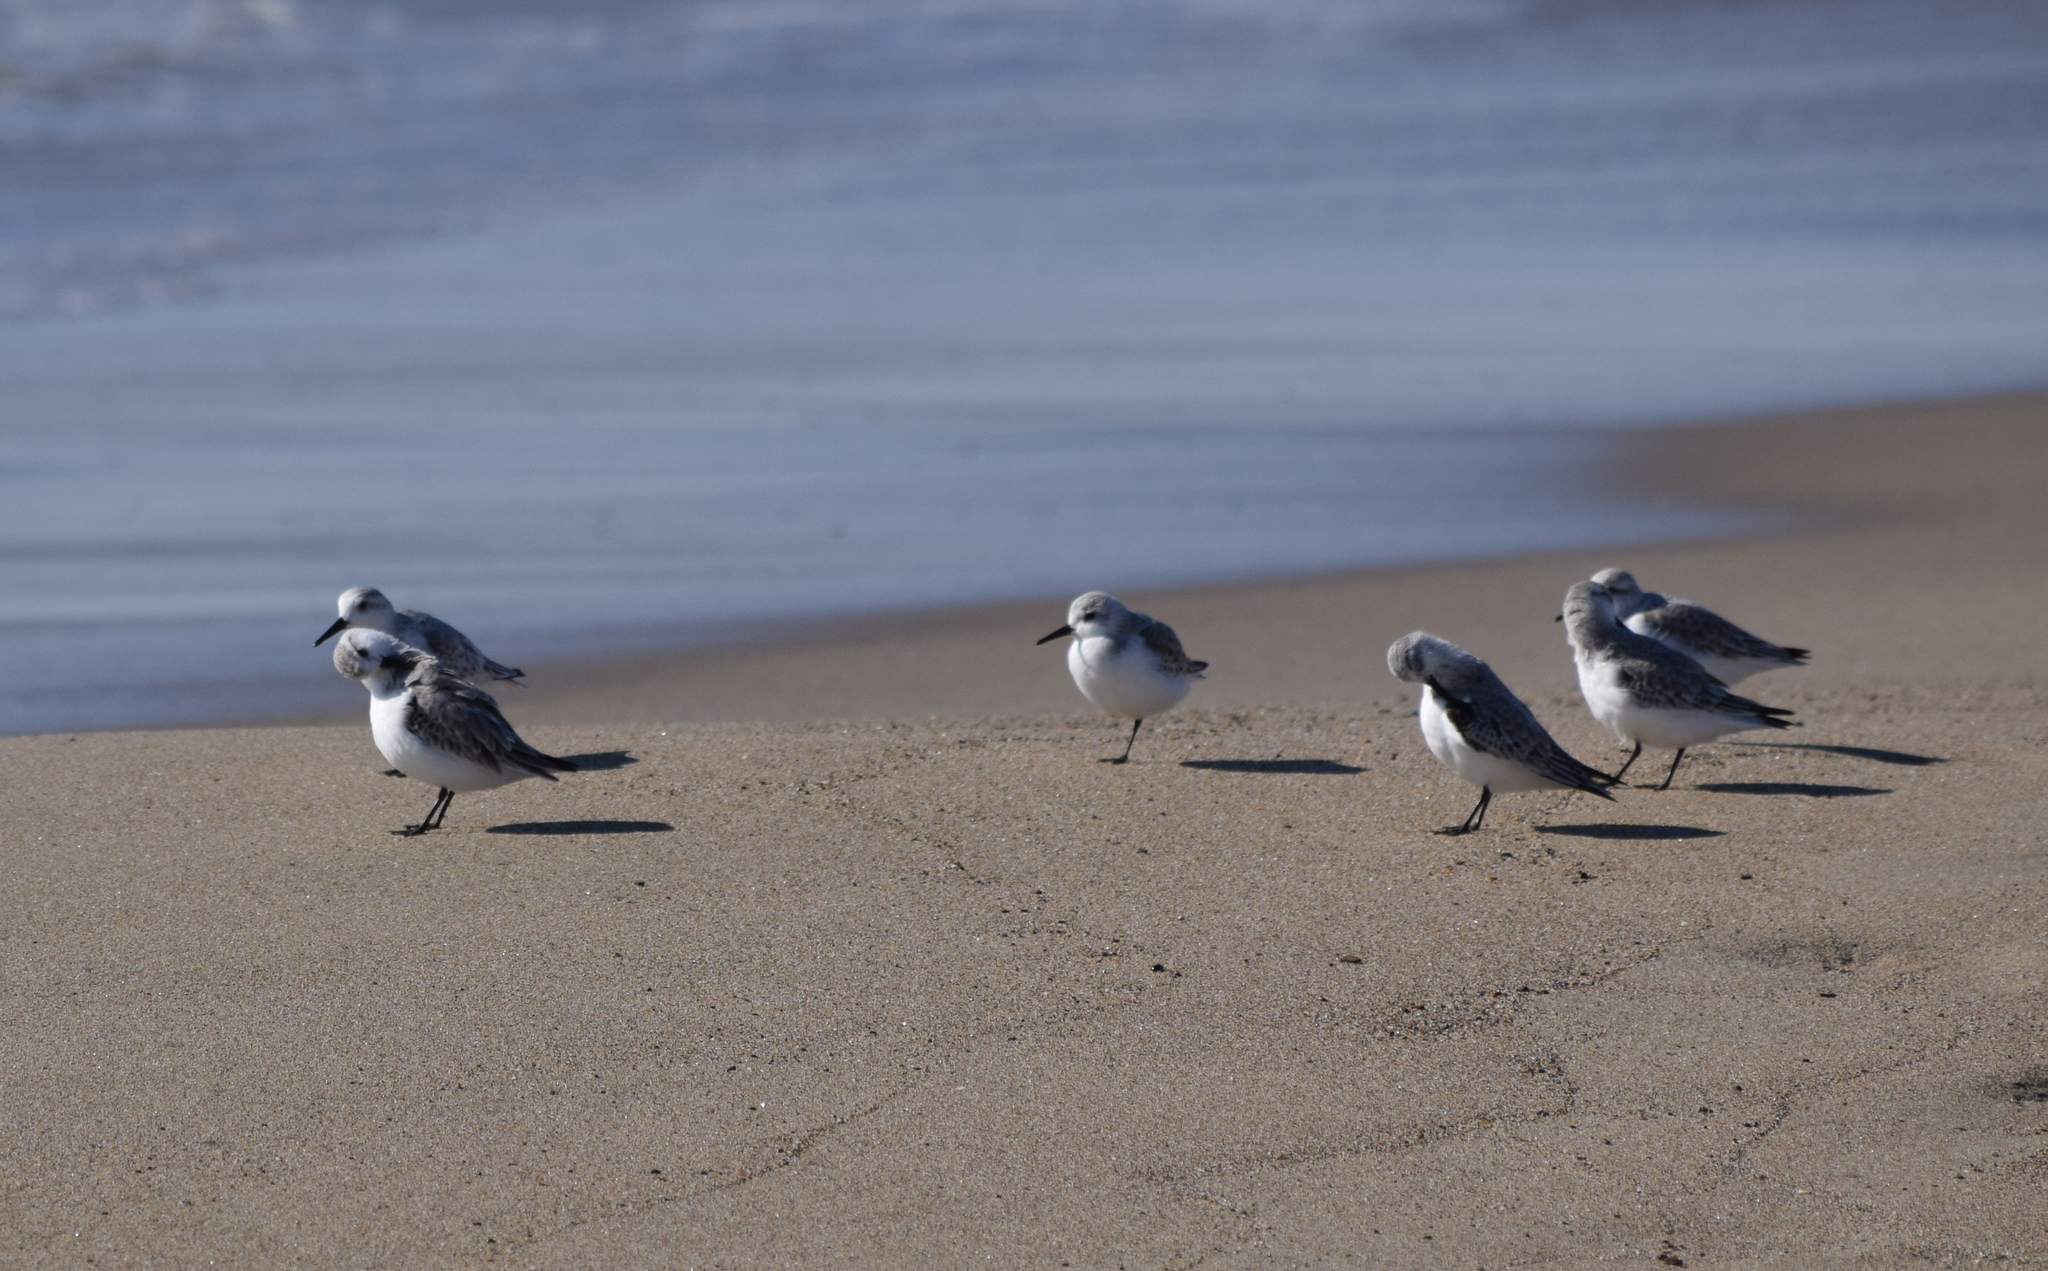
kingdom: Animalia
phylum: Chordata
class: Aves
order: Charadriiformes
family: Scolopacidae
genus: Calidris
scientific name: Calidris alba
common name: Sanderling
